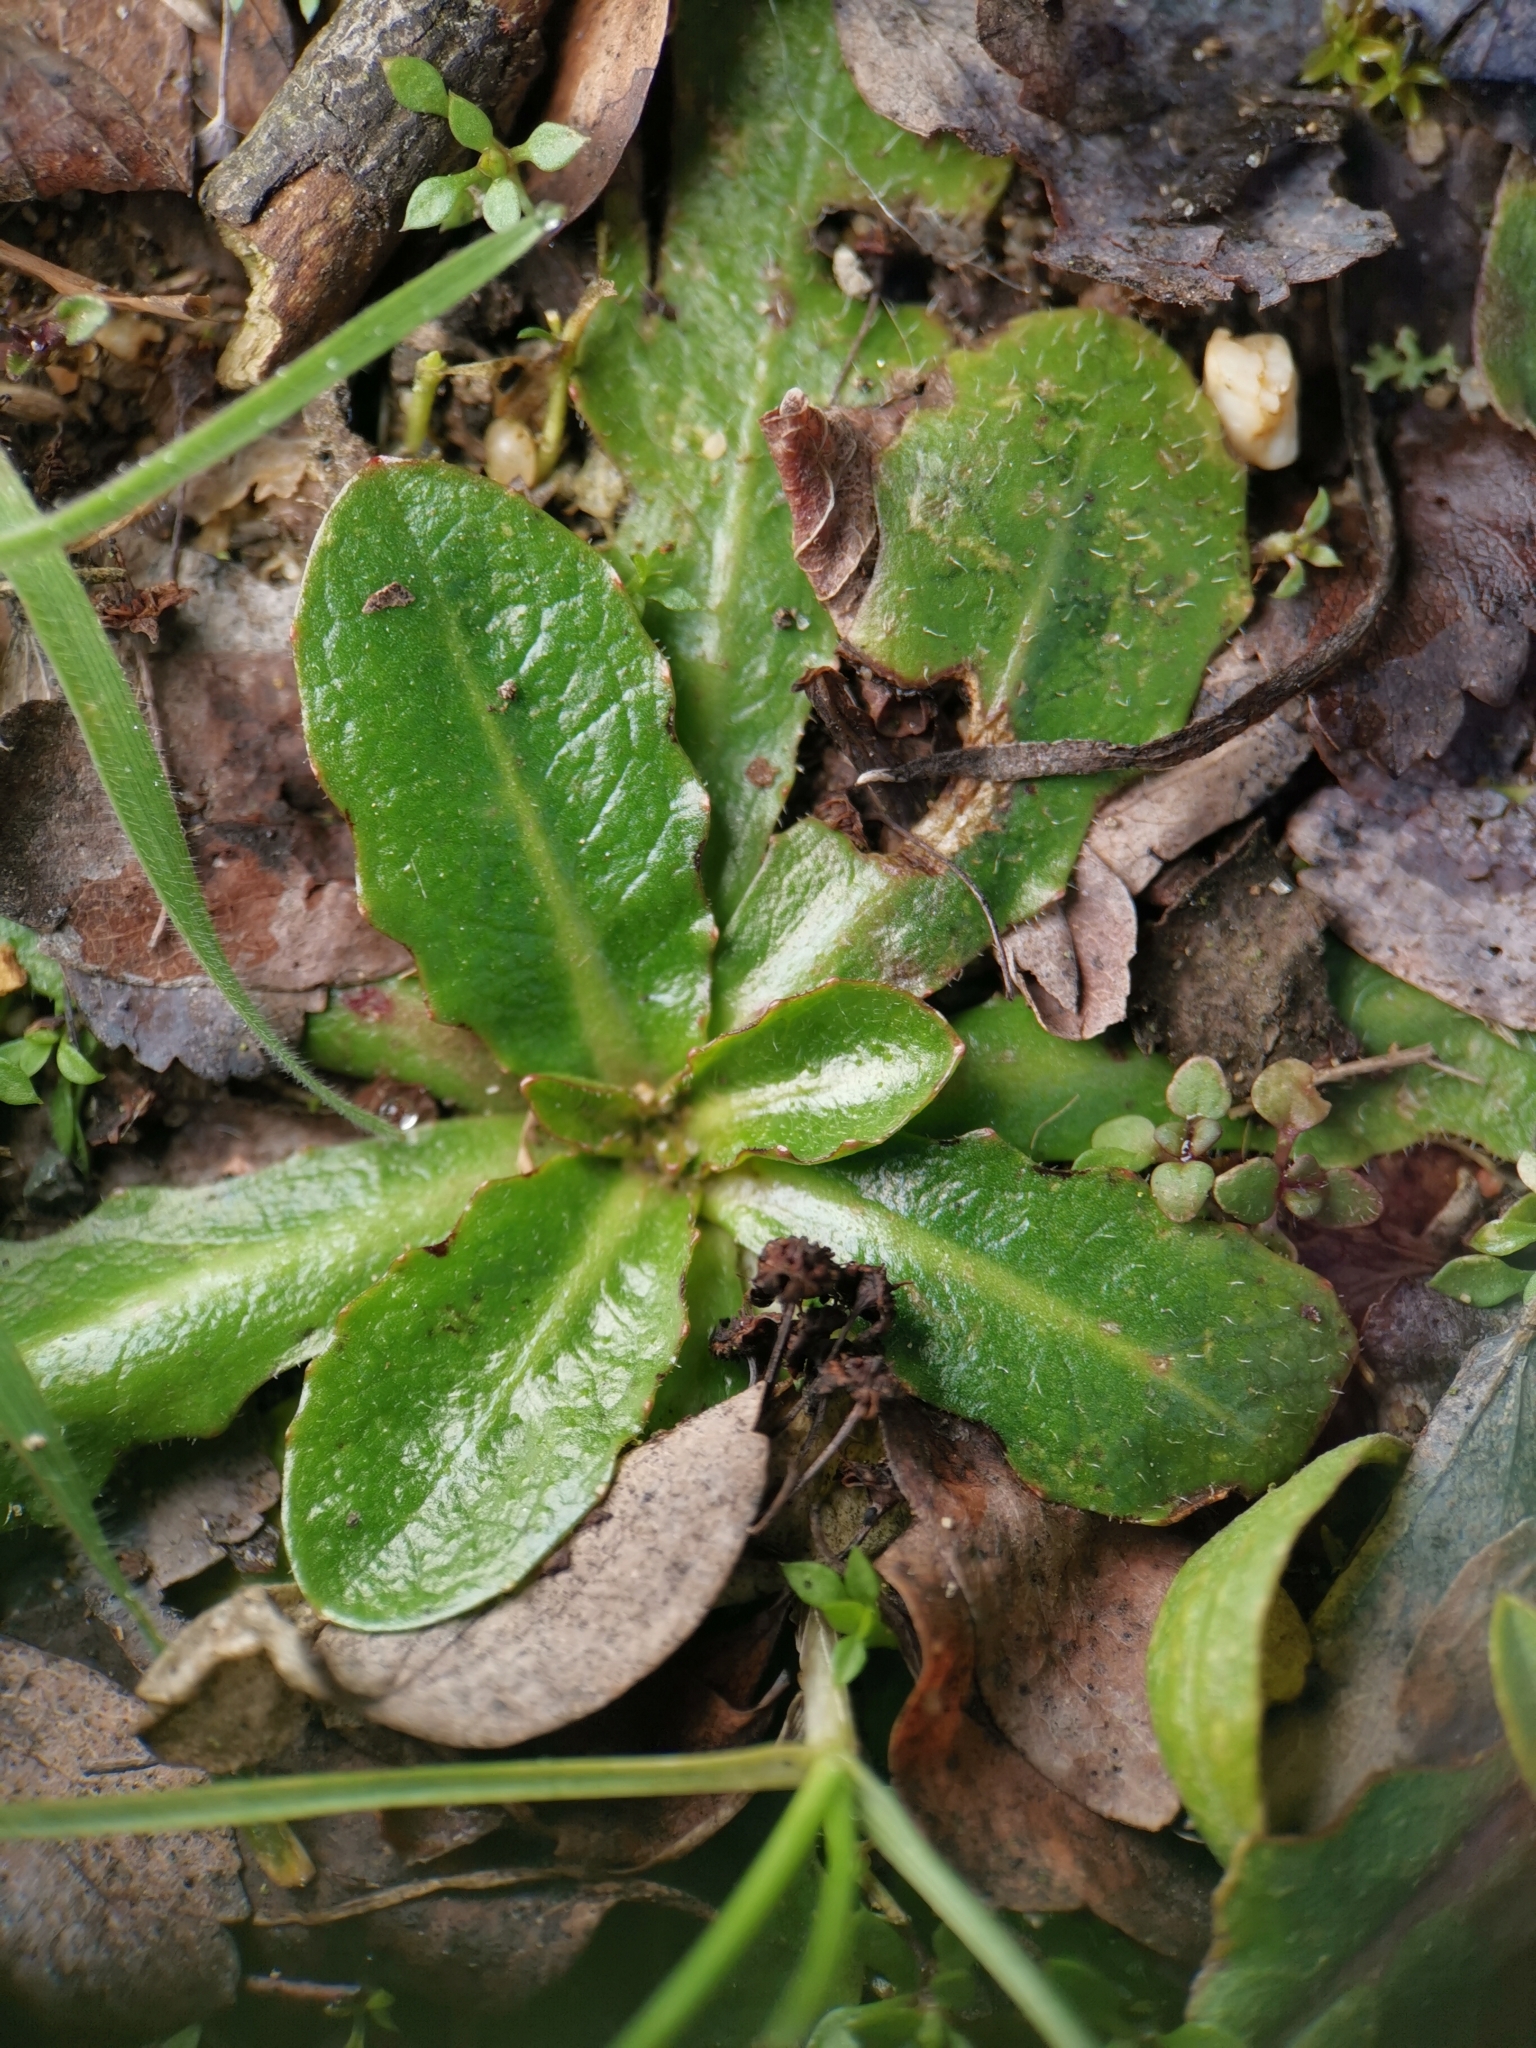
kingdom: Plantae
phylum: Tracheophyta
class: Magnoliopsida
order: Asterales
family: Asteraceae
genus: Hypochaeris
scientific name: Hypochaeris radicata
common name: Flatweed
